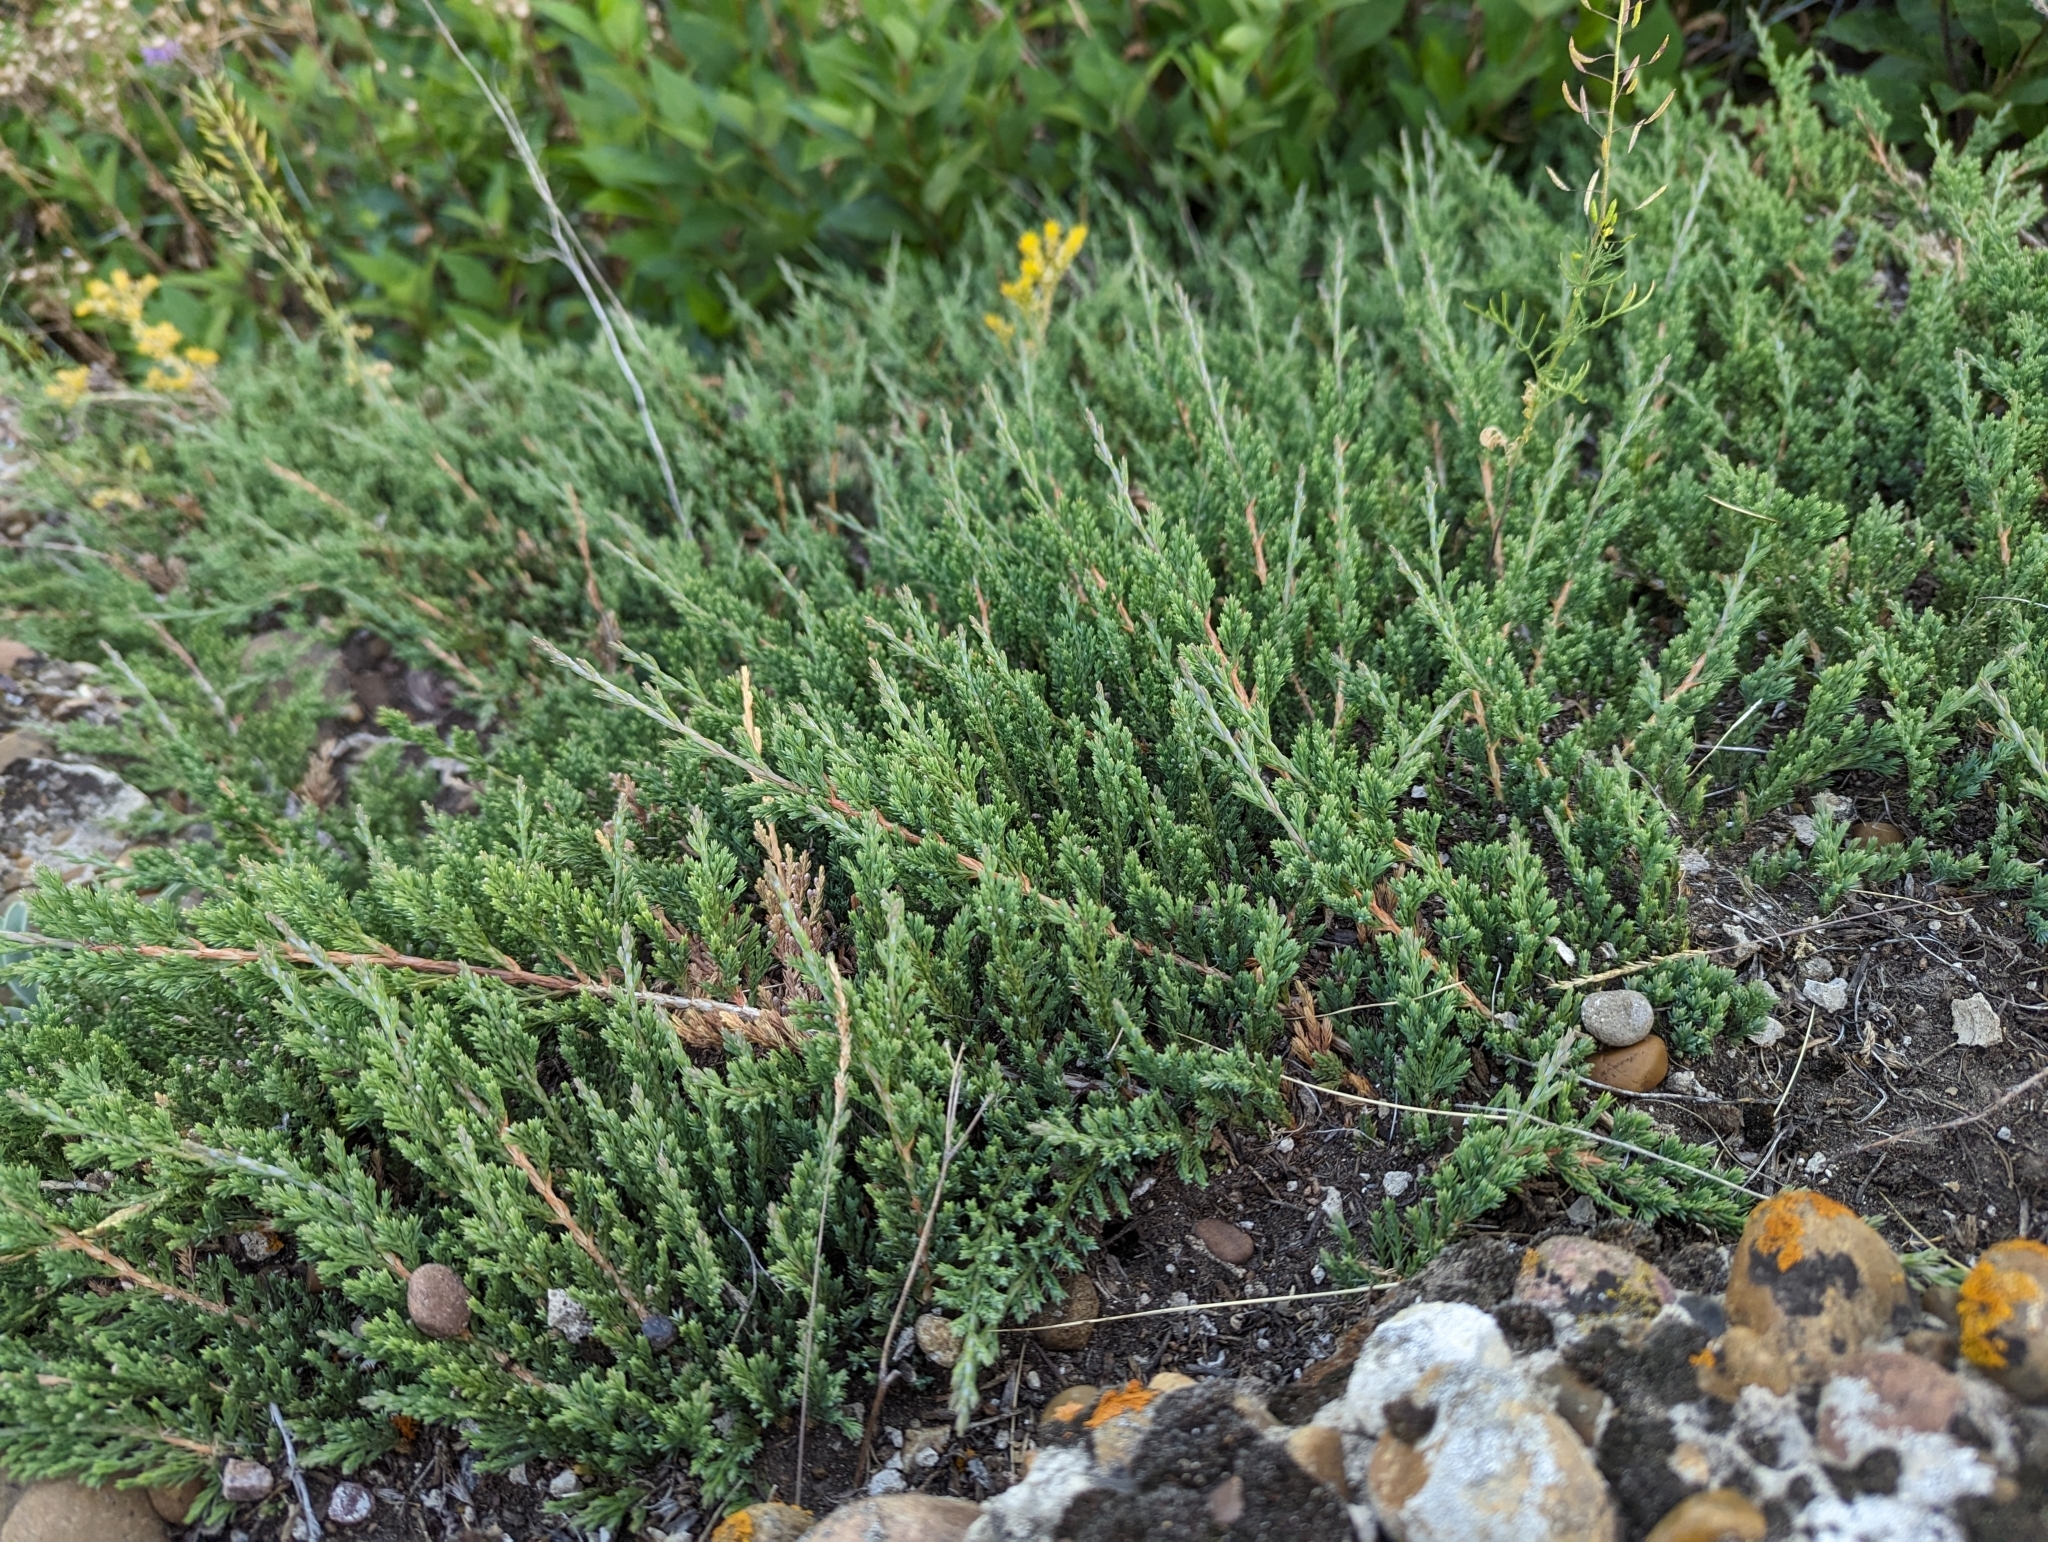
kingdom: Plantae
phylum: Tracheophyta
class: Pinopsida
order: Pinales
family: Cupressaceae
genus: Juniperus
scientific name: Juniperus horizontalis
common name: Creeping juniper
